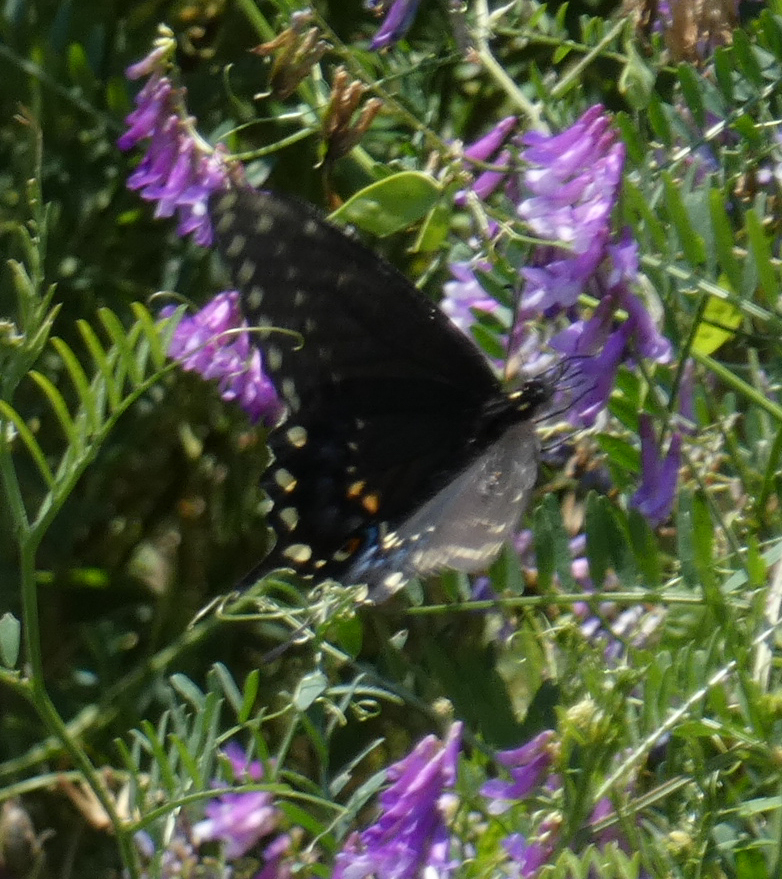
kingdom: Animalia
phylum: Arthropoda
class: Insecta
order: Lepidoptera
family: Papilionidae
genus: Papilio
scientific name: Papilio polyxenes
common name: Black swallowtail
